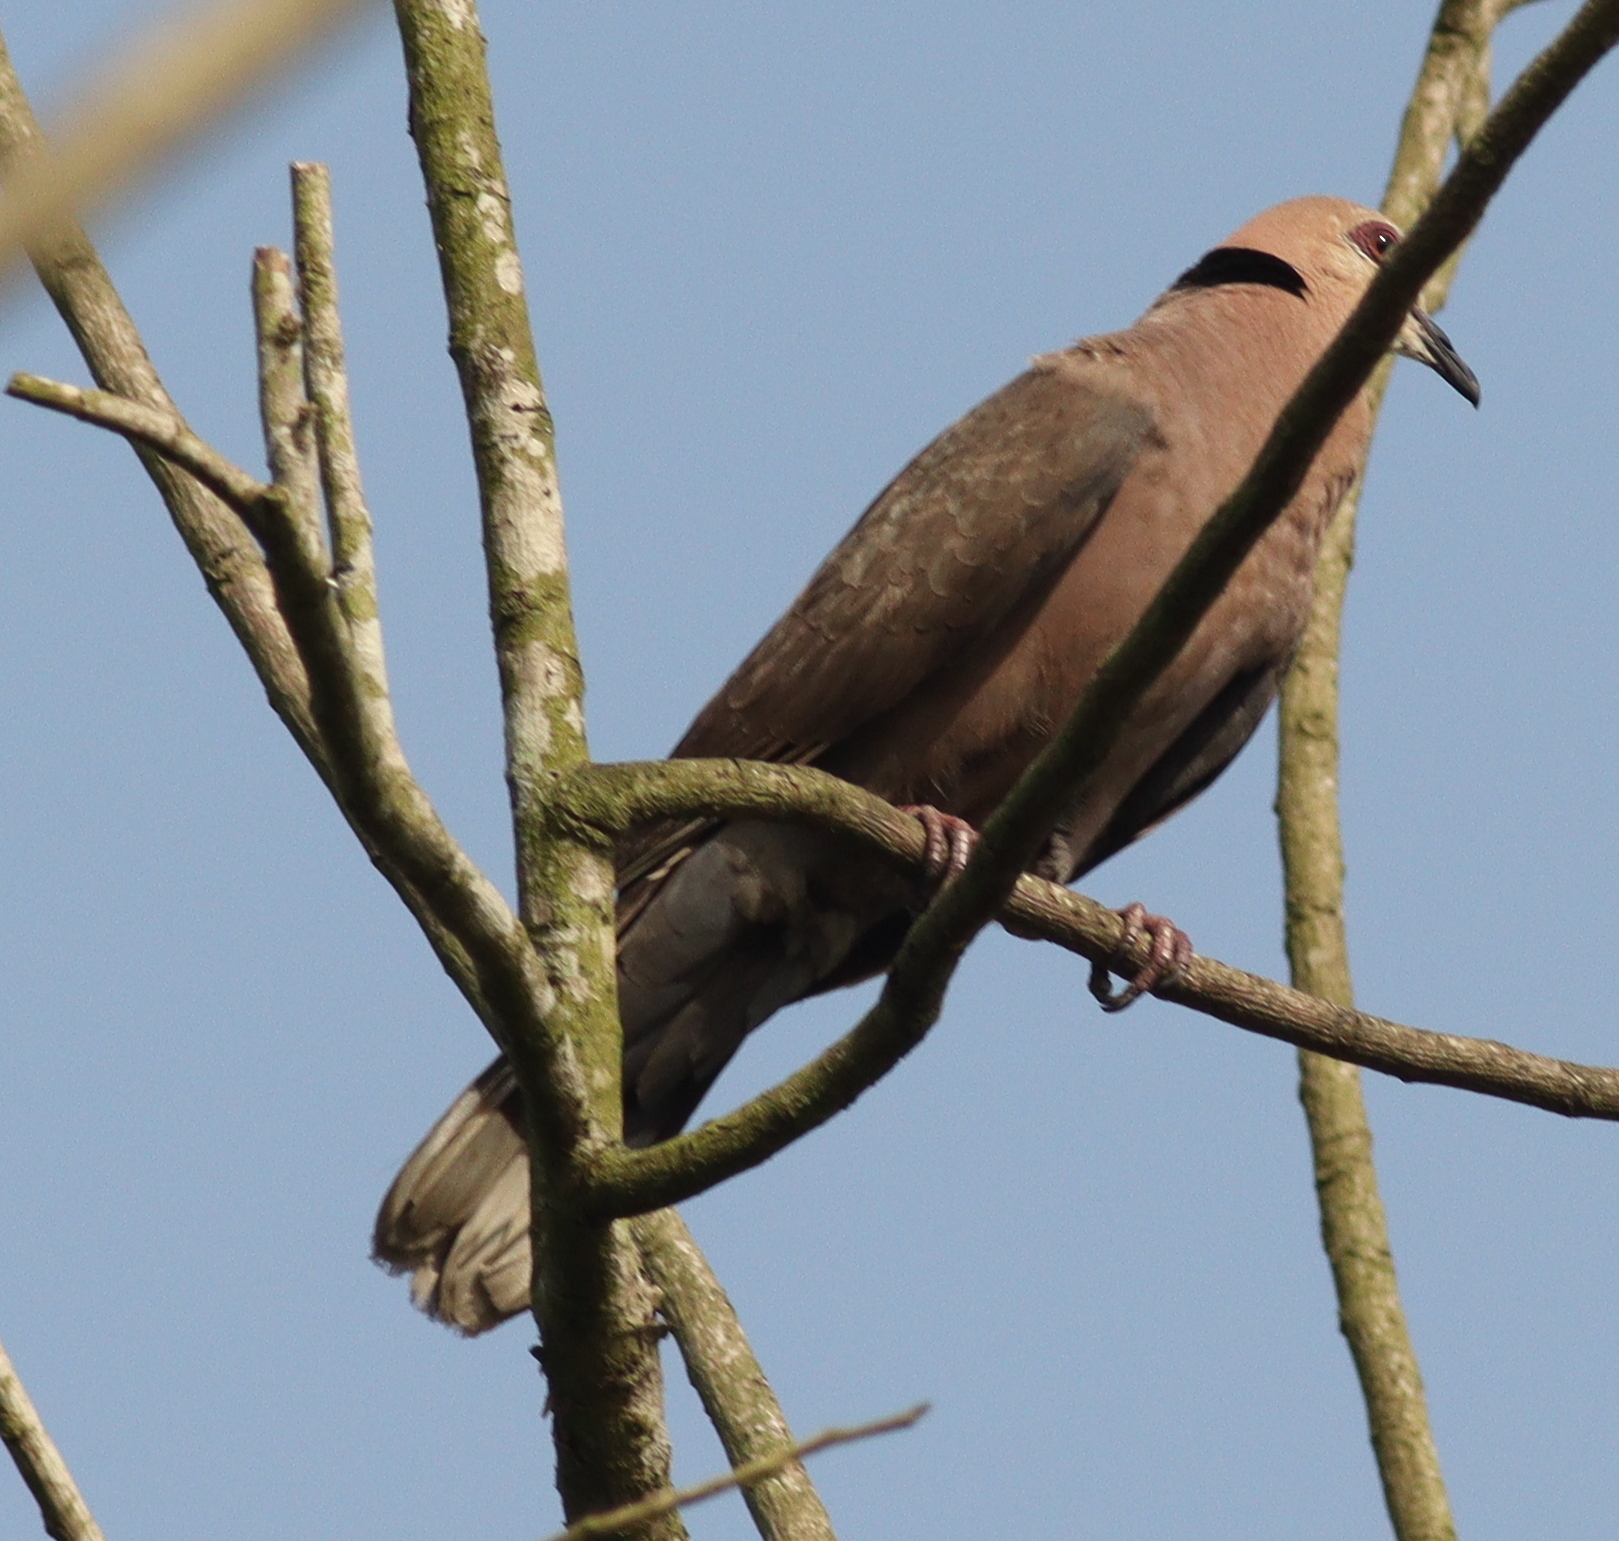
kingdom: Animalia
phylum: Chordata
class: Aves
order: Columbiformes
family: Columbidae
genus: Streptopelia
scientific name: Streptopelia semitorquata
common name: Red-eyed dove
